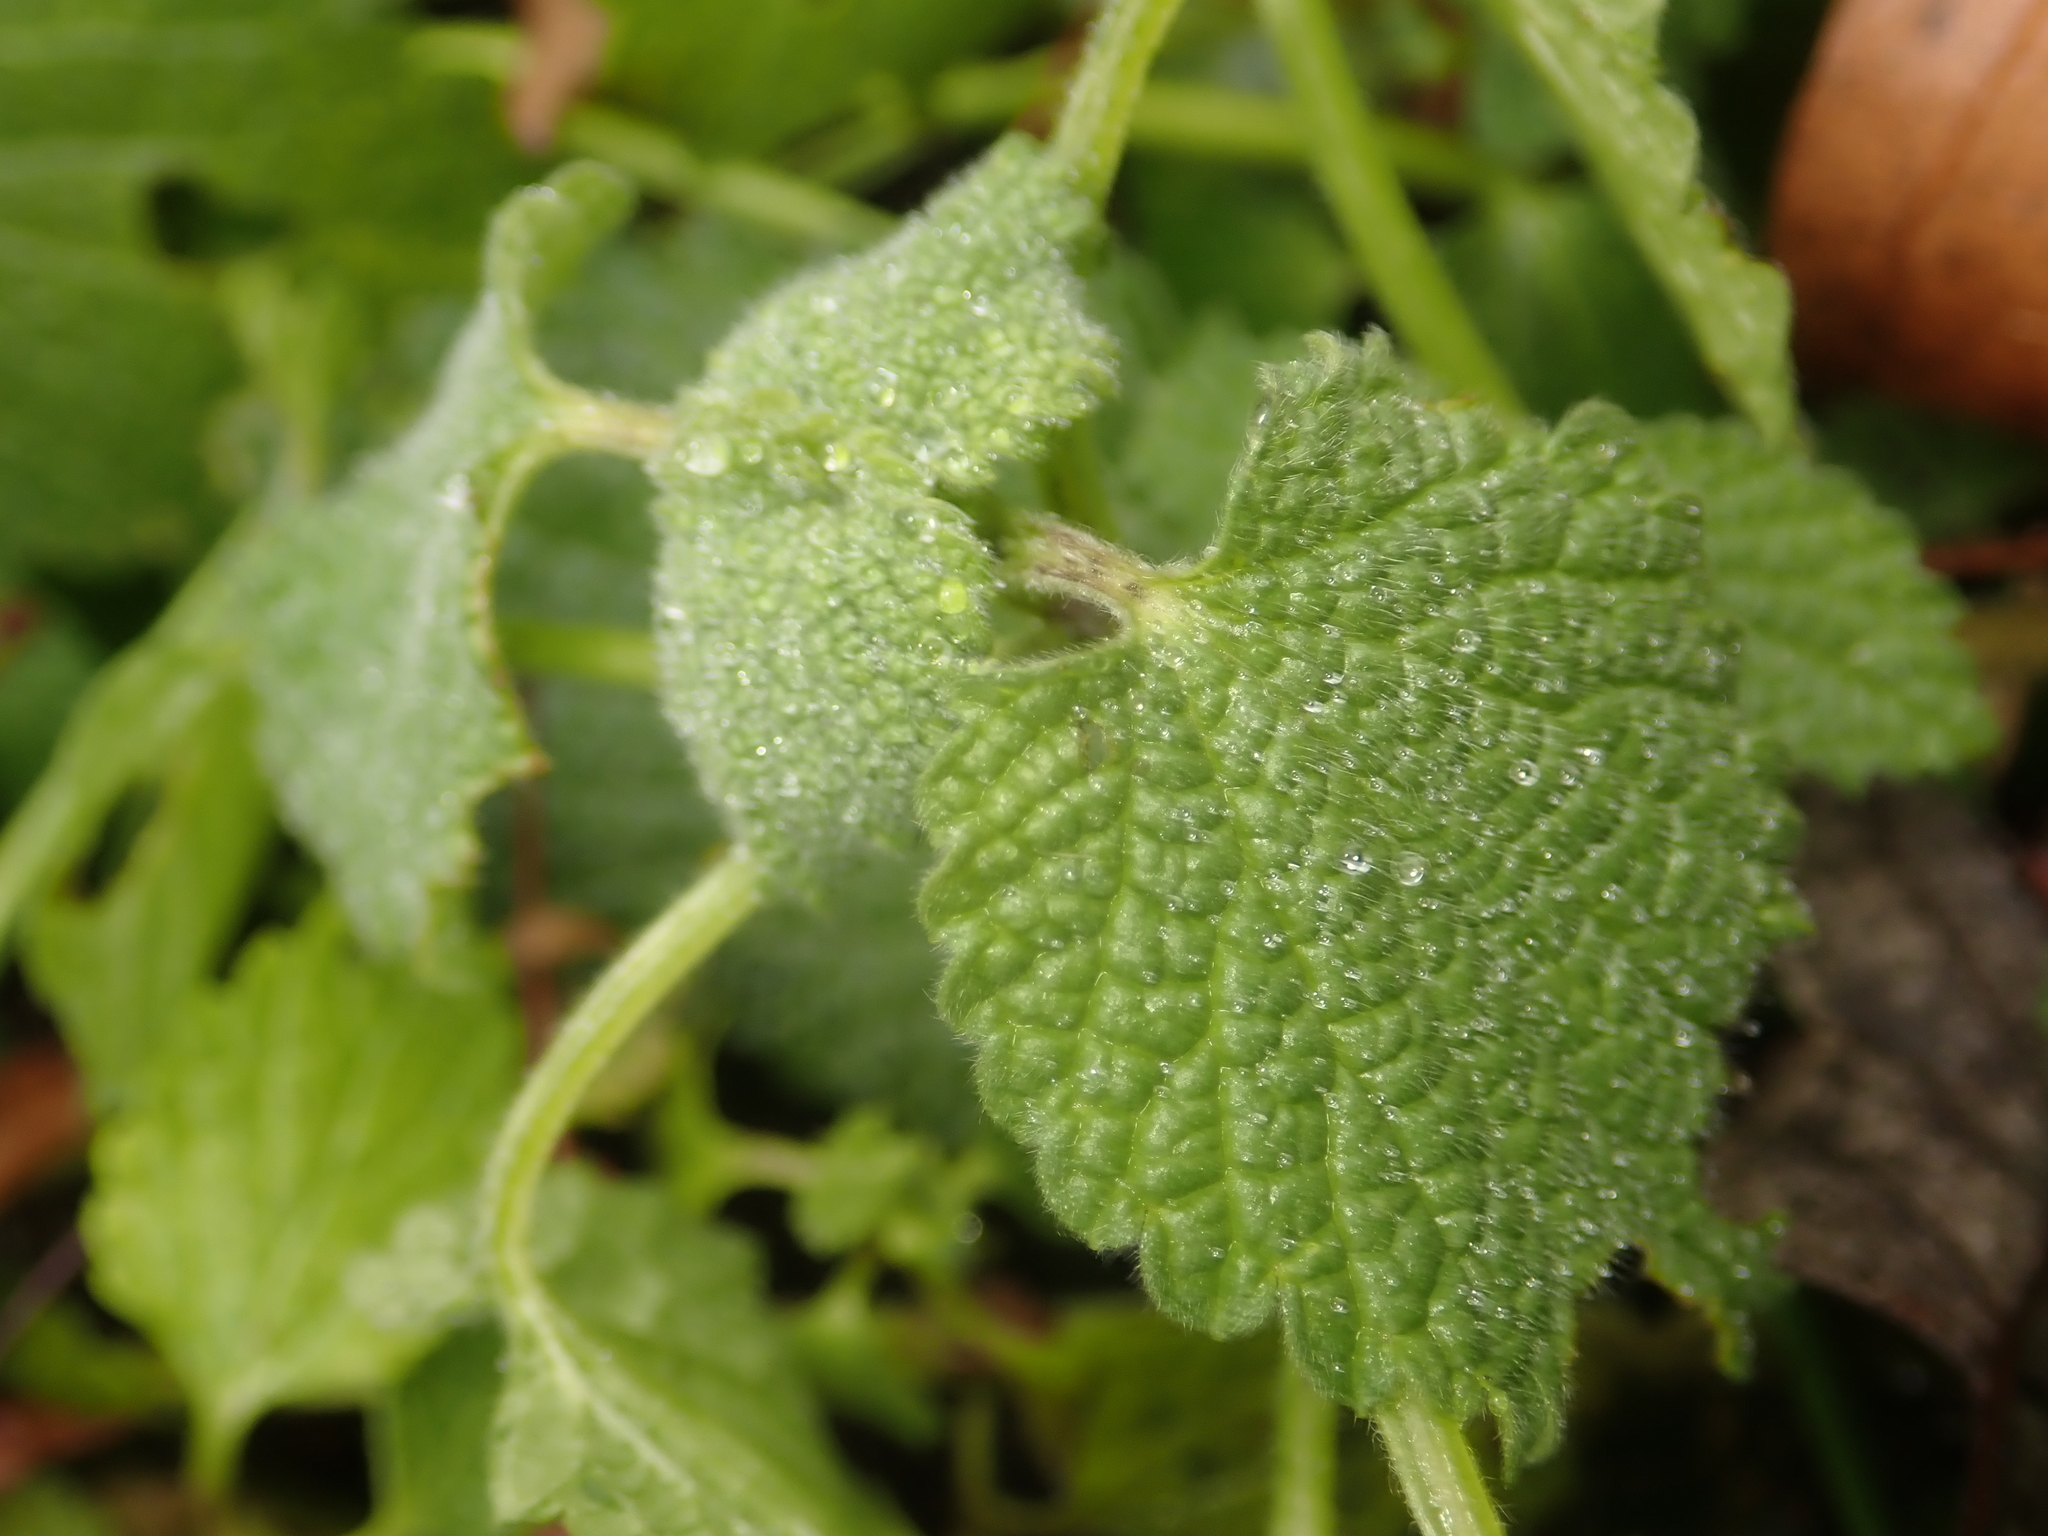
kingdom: Plantae
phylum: Tracheophyta
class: Magnoliopsida
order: Lamiales
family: Lamiaceae
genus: Ballota
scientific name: Ballota nigra
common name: Black horehound
